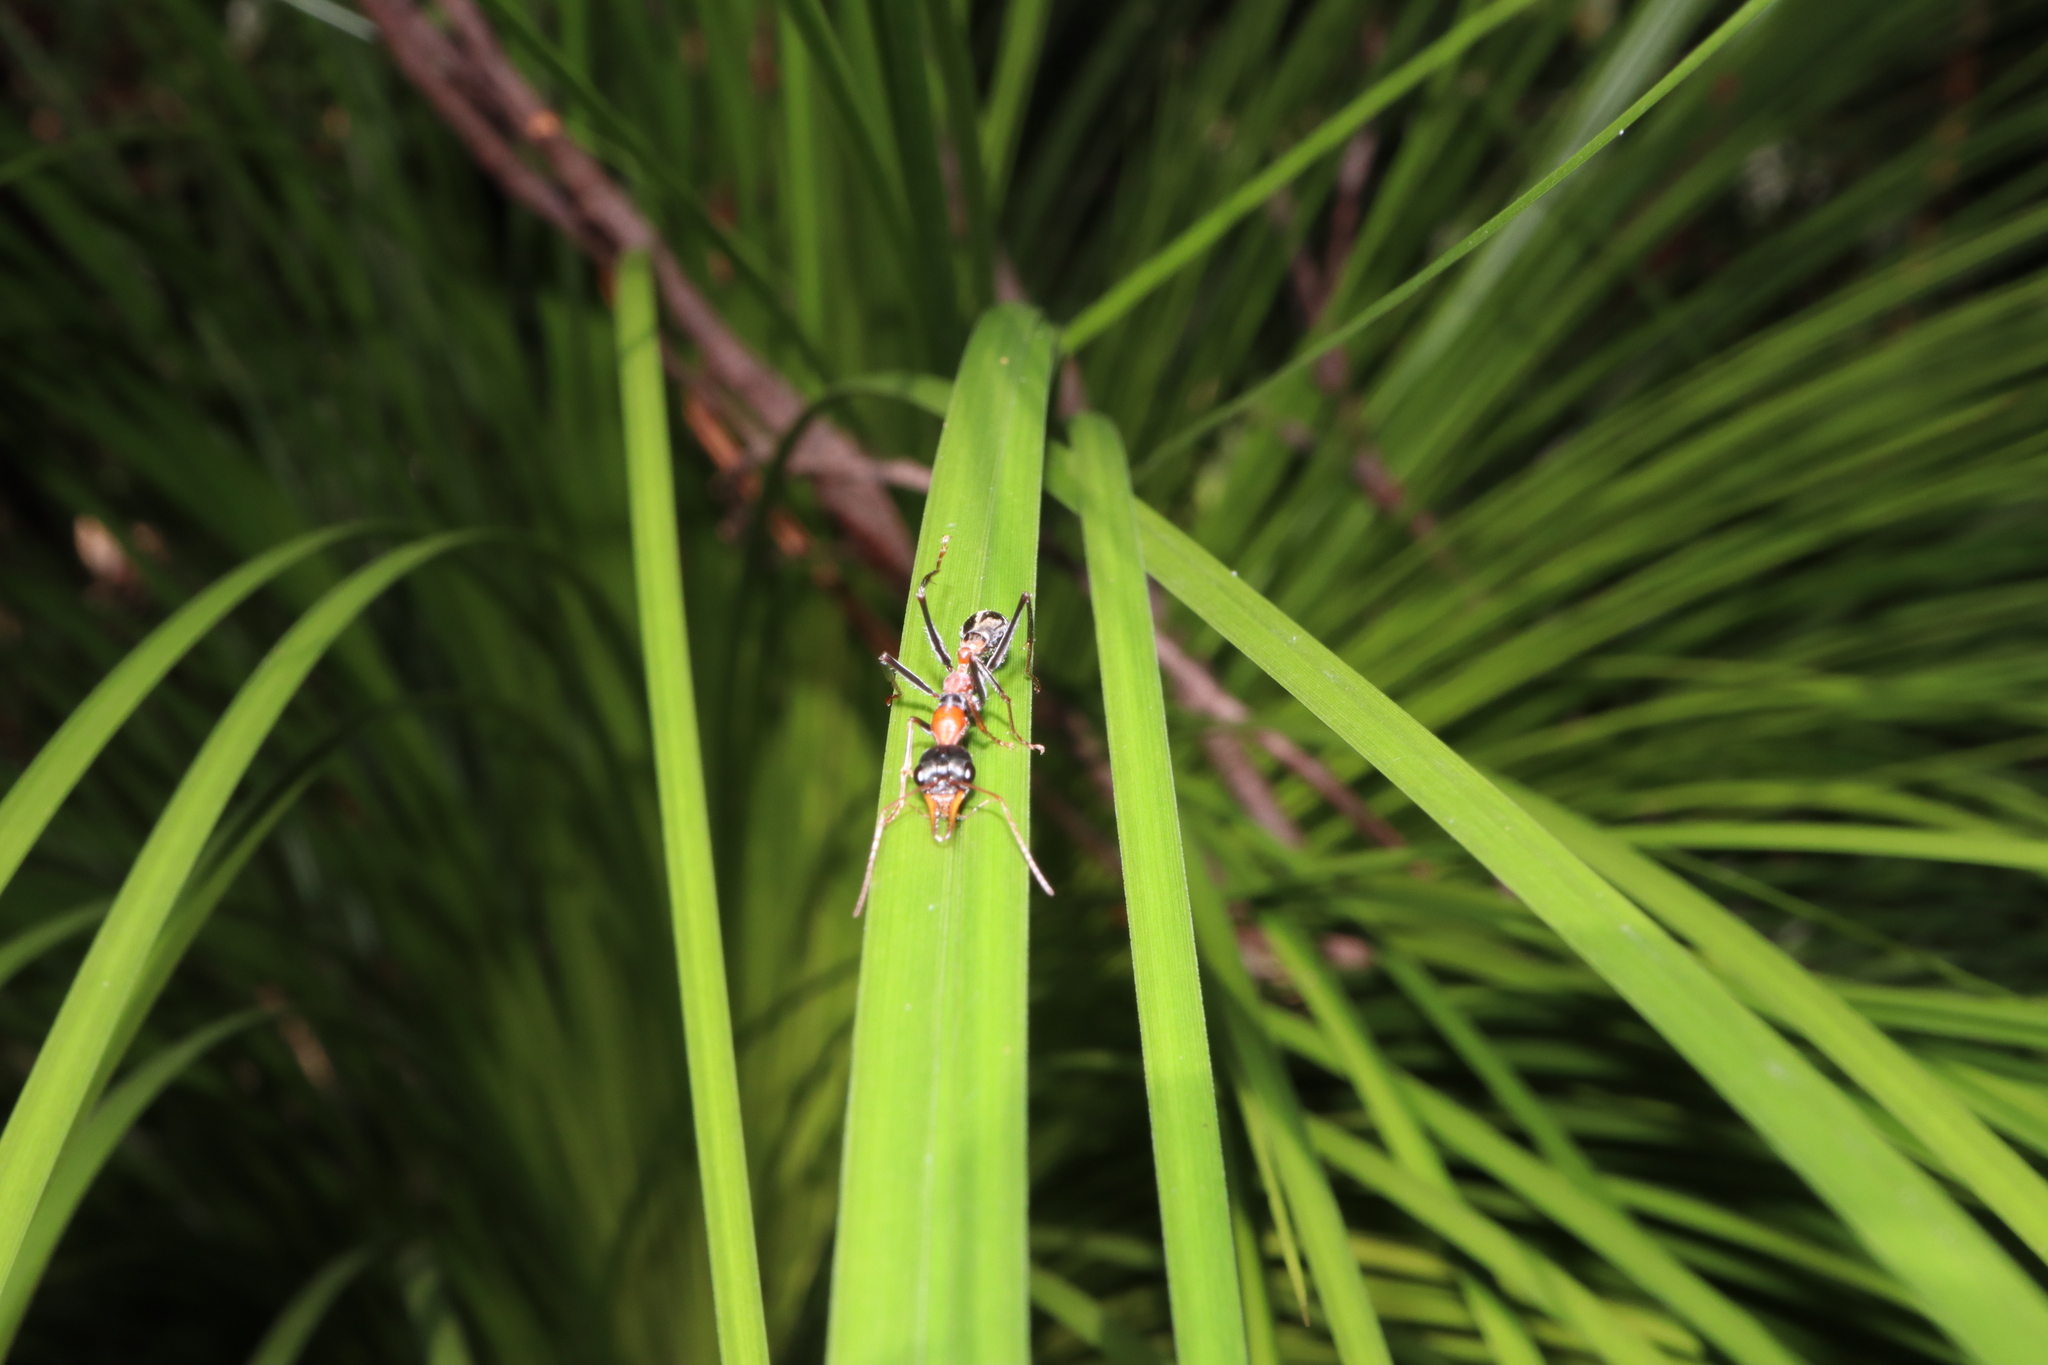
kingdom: Animalia
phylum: Arthropoda
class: Insecta
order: Hymenoptera
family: Formicidae
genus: Myrmecia
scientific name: Myrmecia nigrocincta
